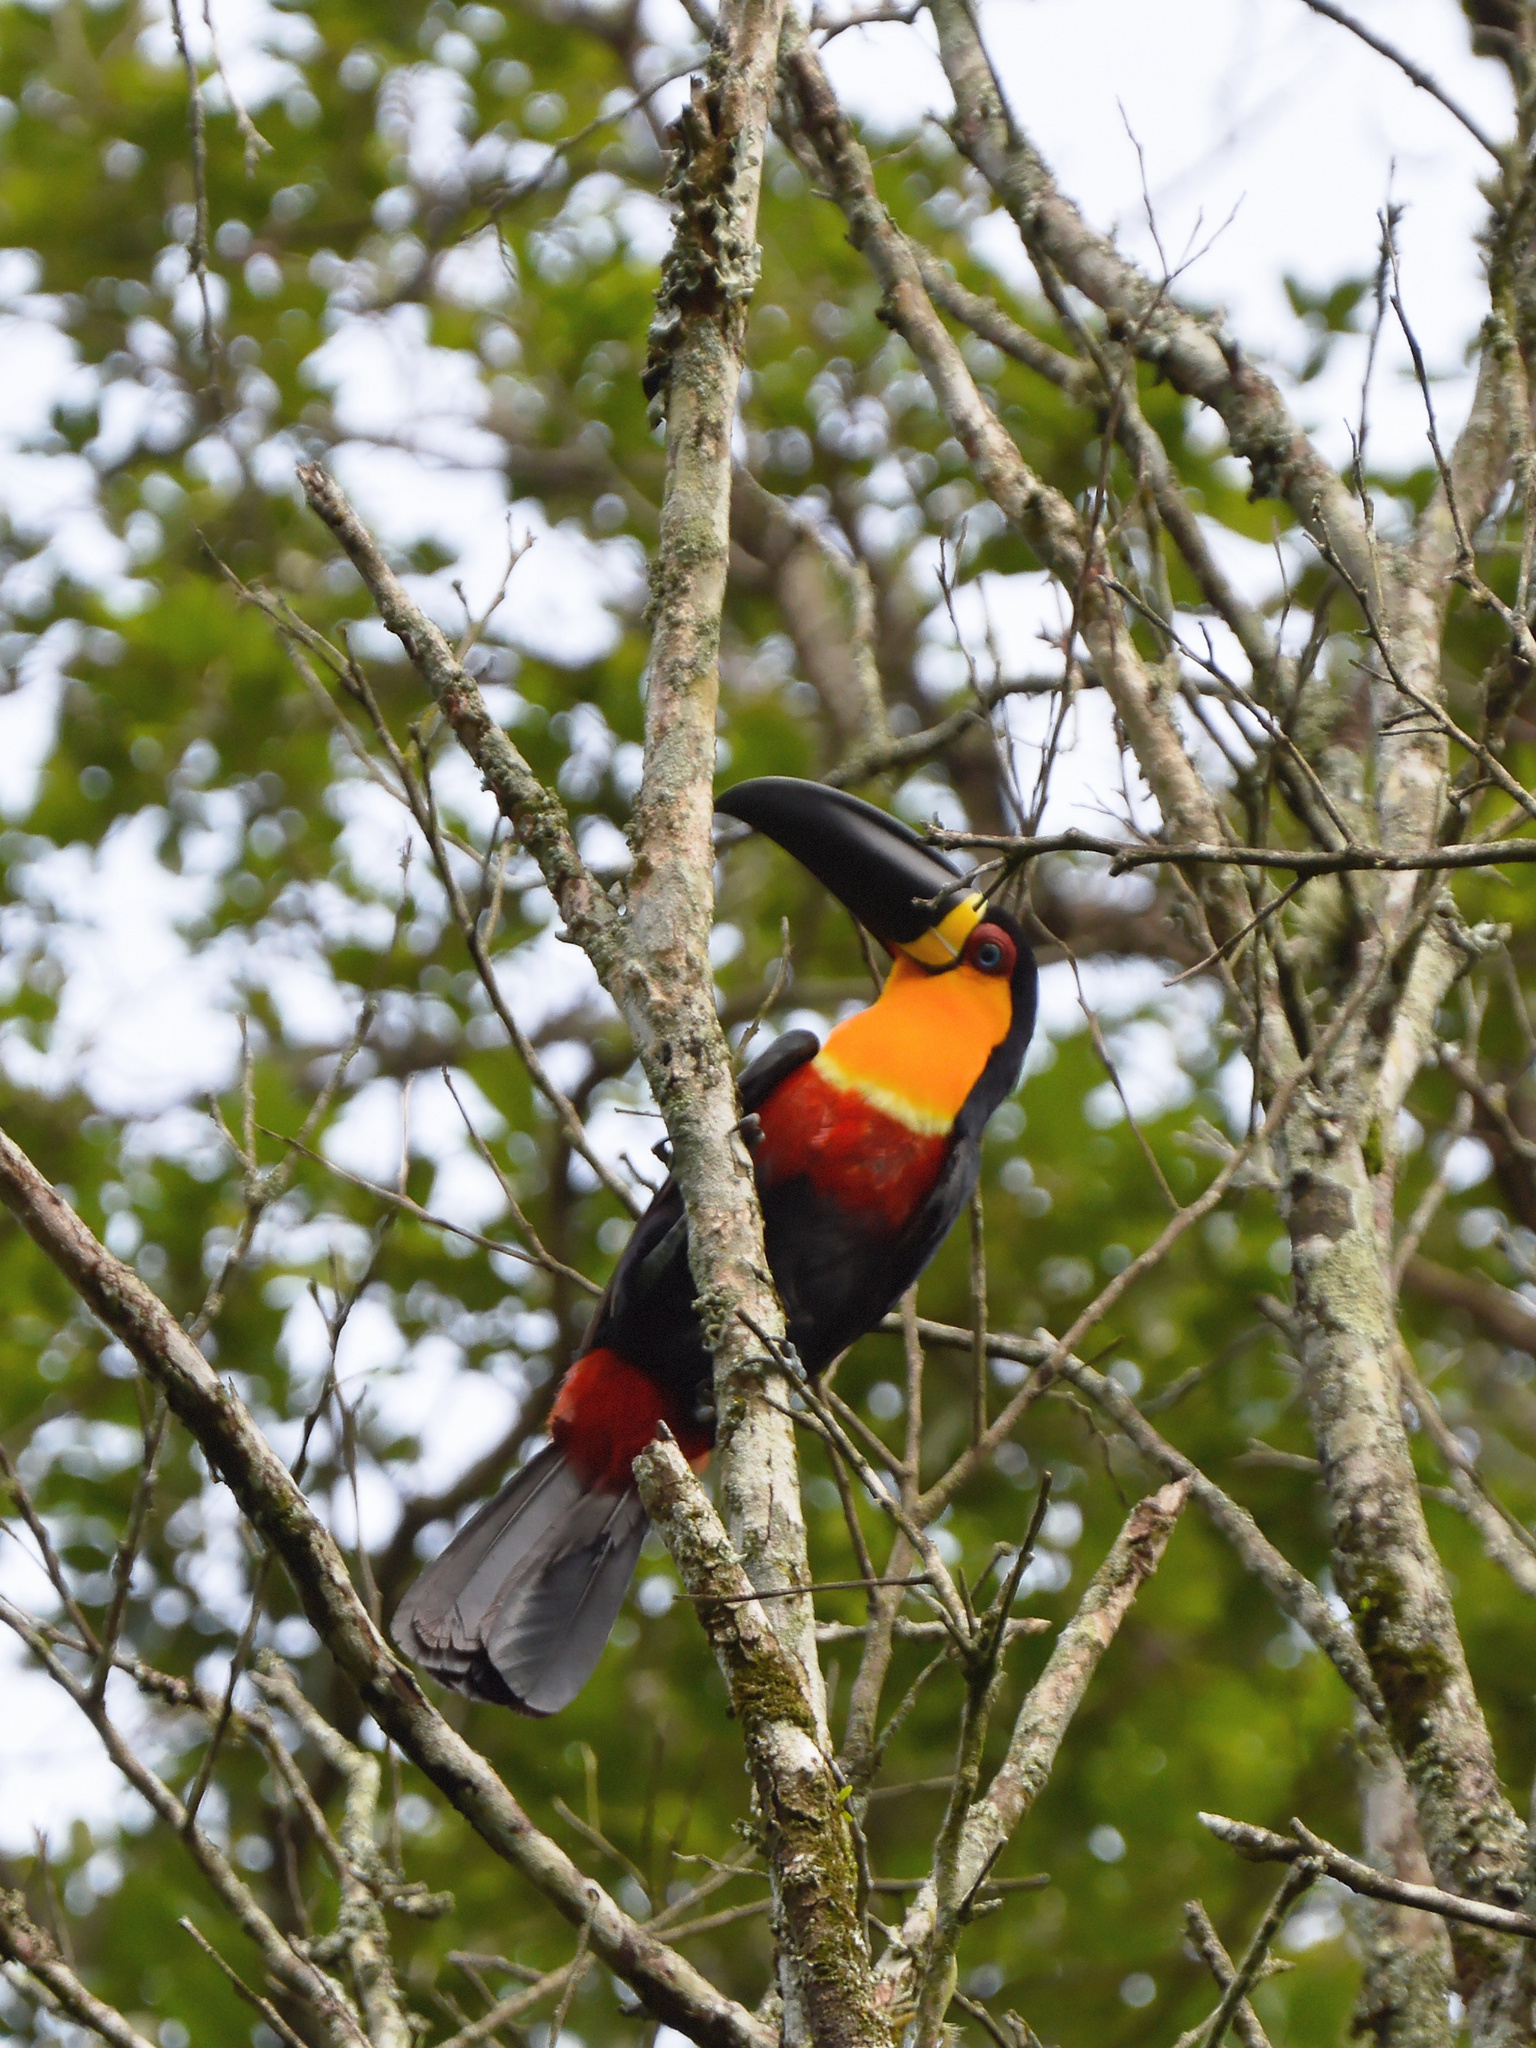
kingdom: Animalia
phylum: Chordata
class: Aves
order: Piciformes
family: Ramphastidae
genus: Ramphastos
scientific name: Ramphastos vitellinus
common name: Channel-billed toucan
